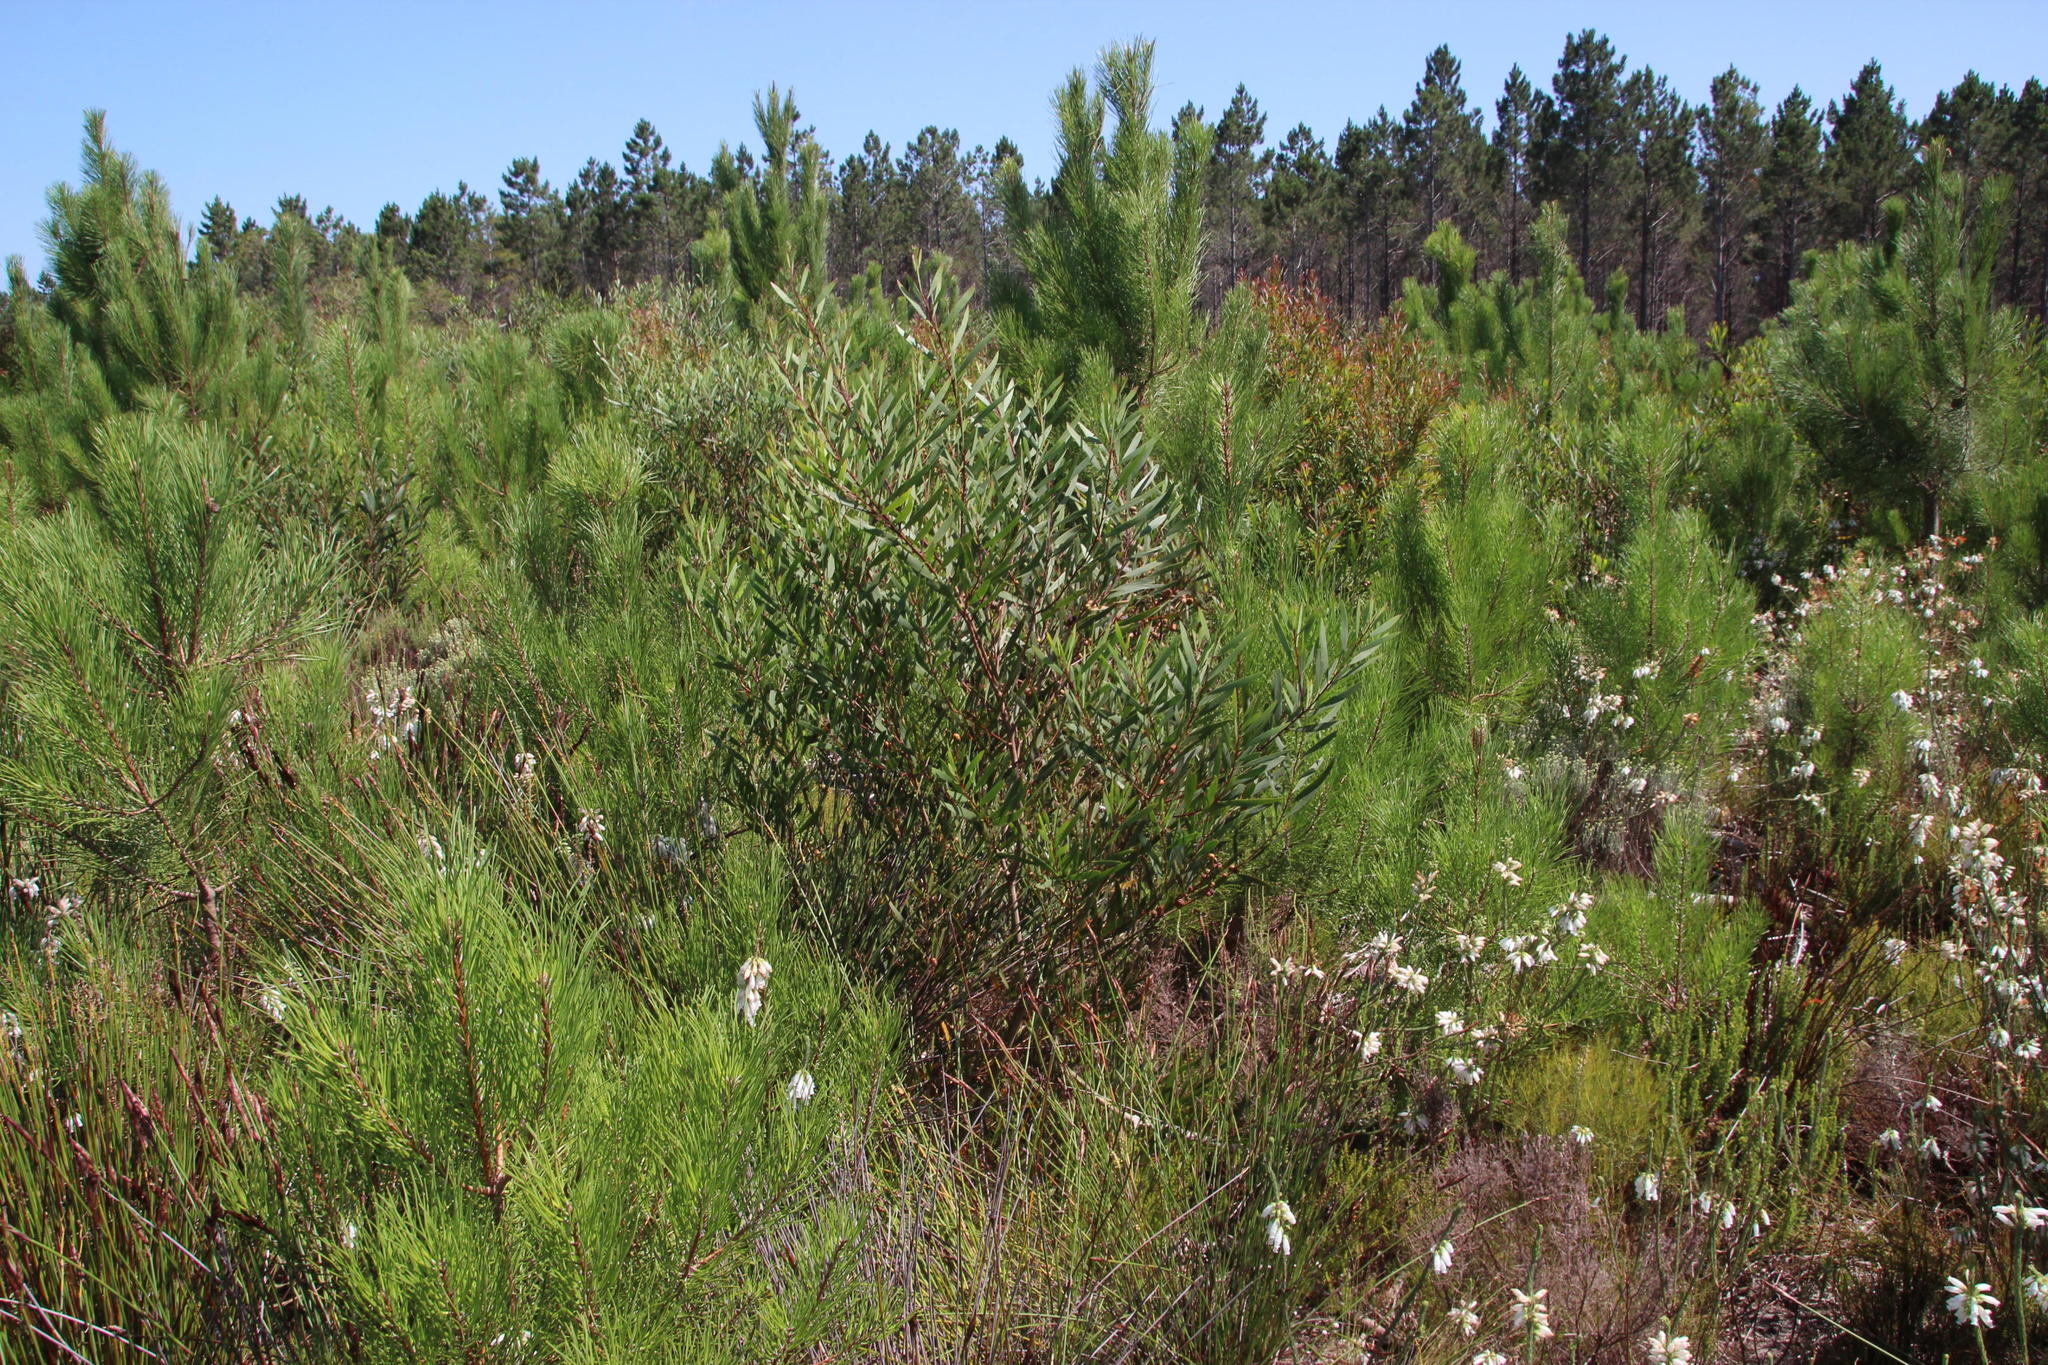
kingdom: Plantae
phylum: Tracheophyta
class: Magnoliopsida
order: Ericales
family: Ericaceae
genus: Erica
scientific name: Erica viscaria
